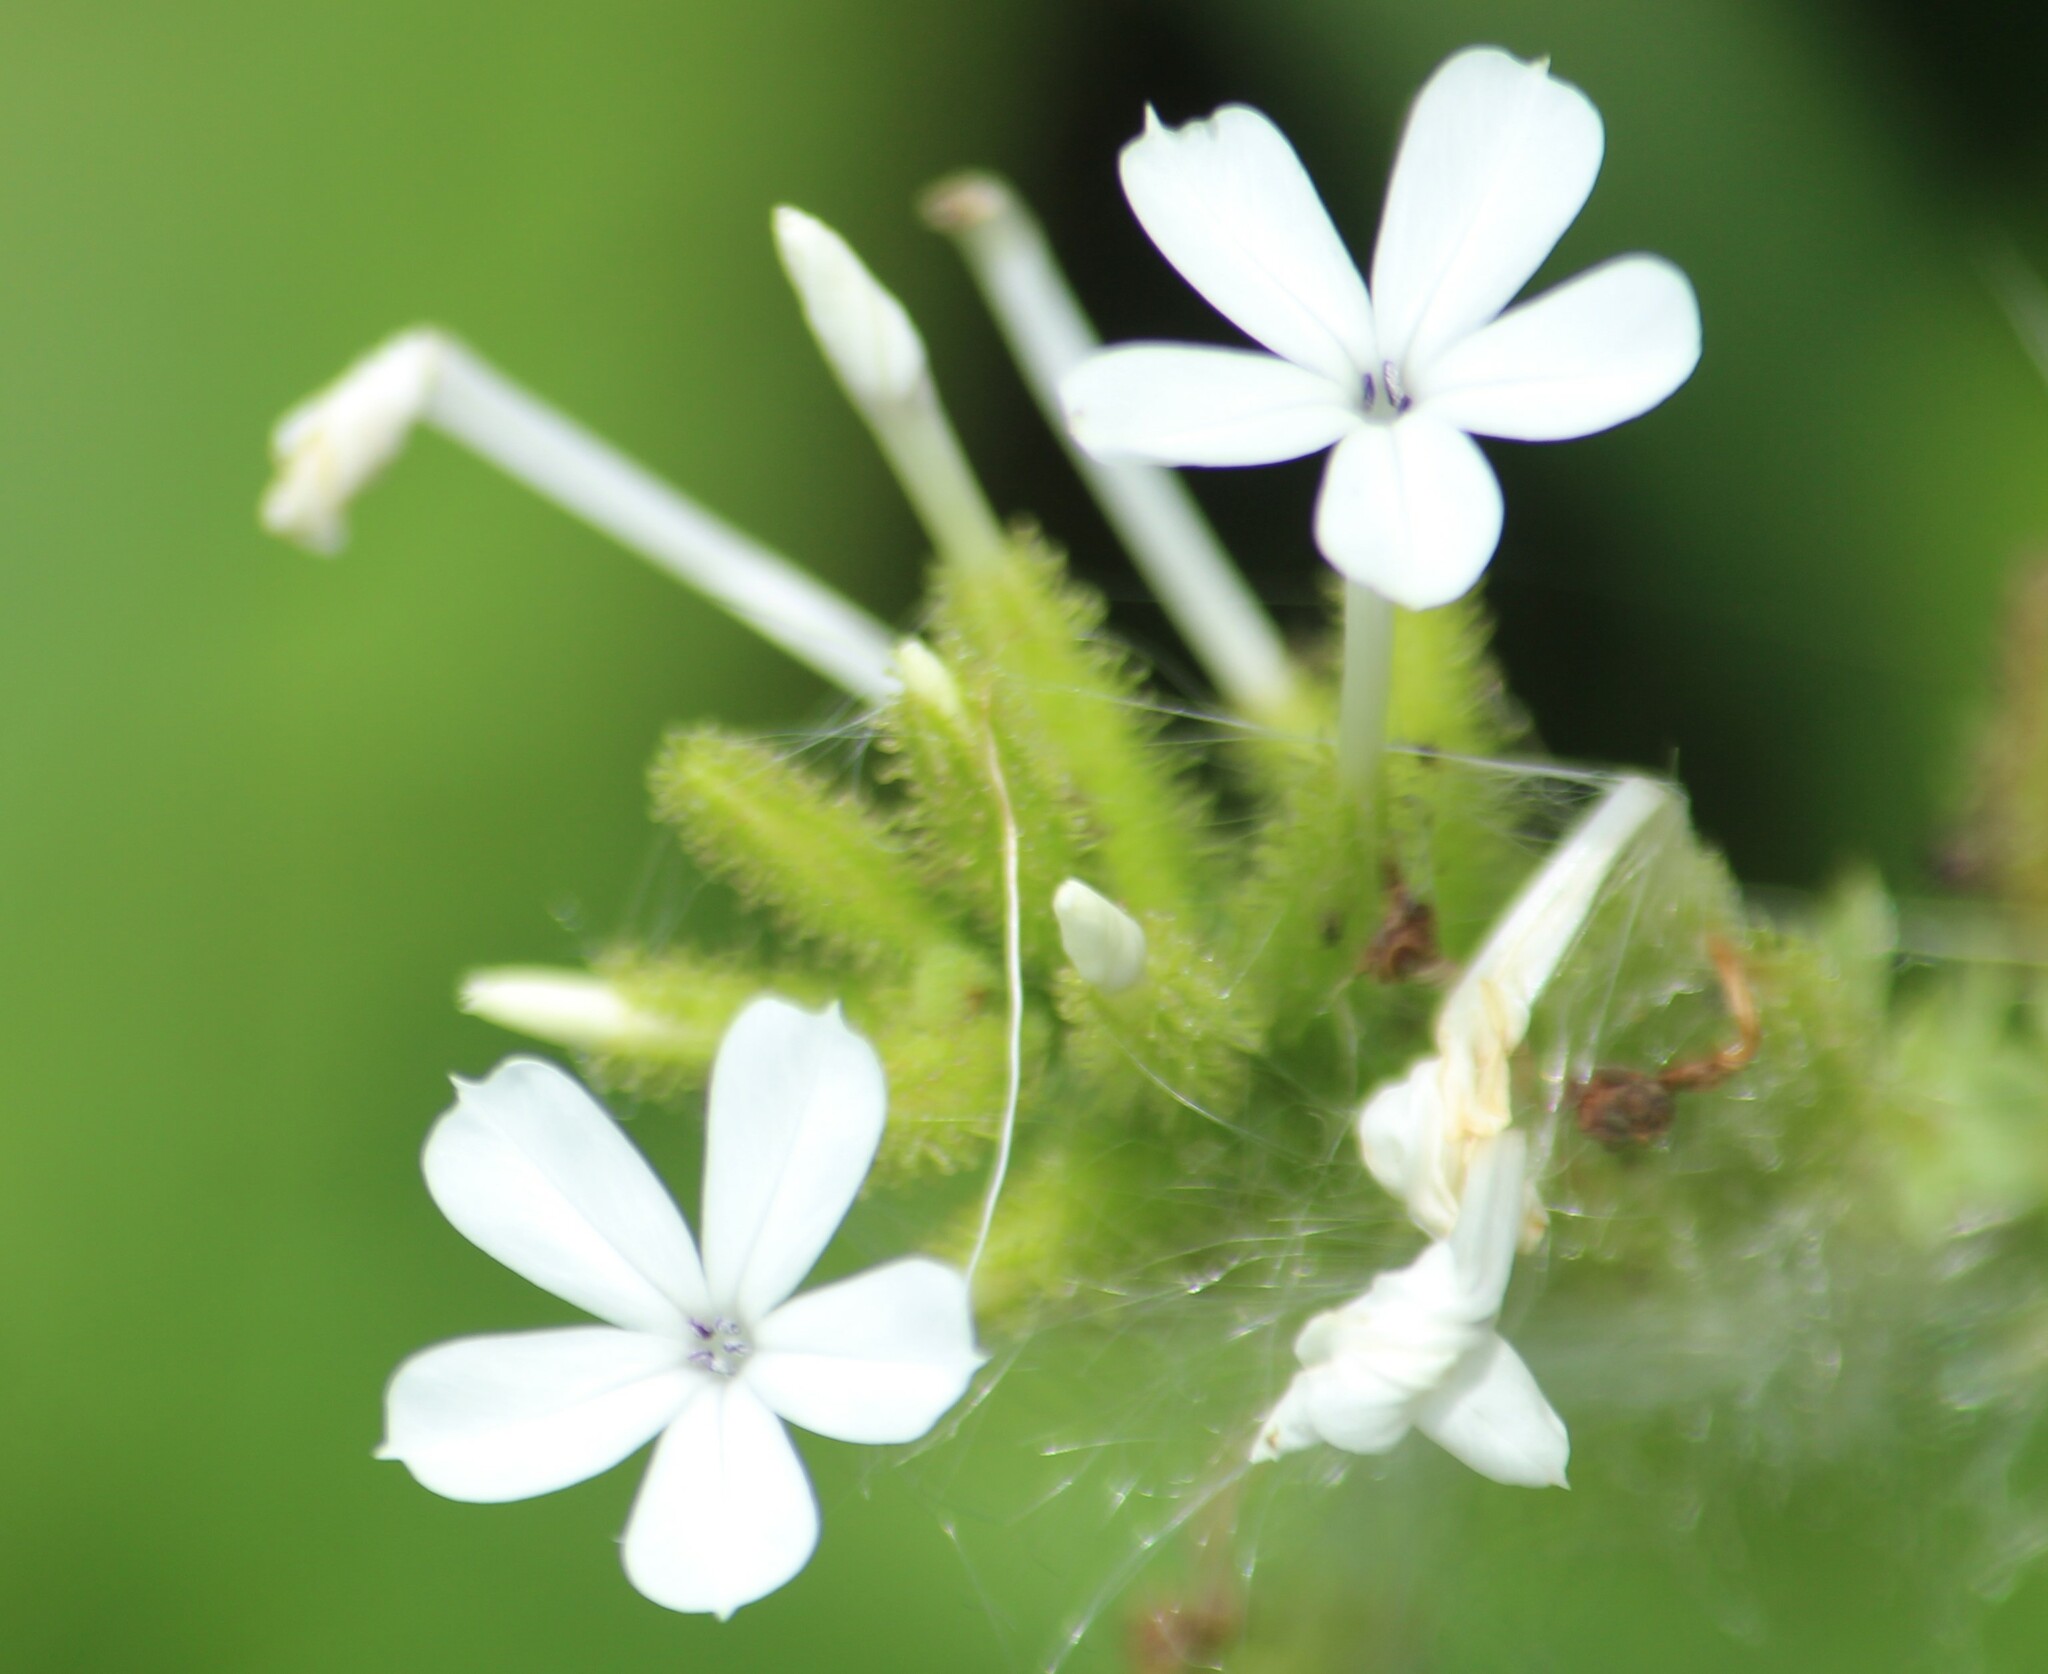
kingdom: Plantae
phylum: Tracheophyta
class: Magnoliopsida
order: Caryophyllales
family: Plumbaginaceae
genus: Plumbago
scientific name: Plumbago zeylanica
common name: Doctorbush
